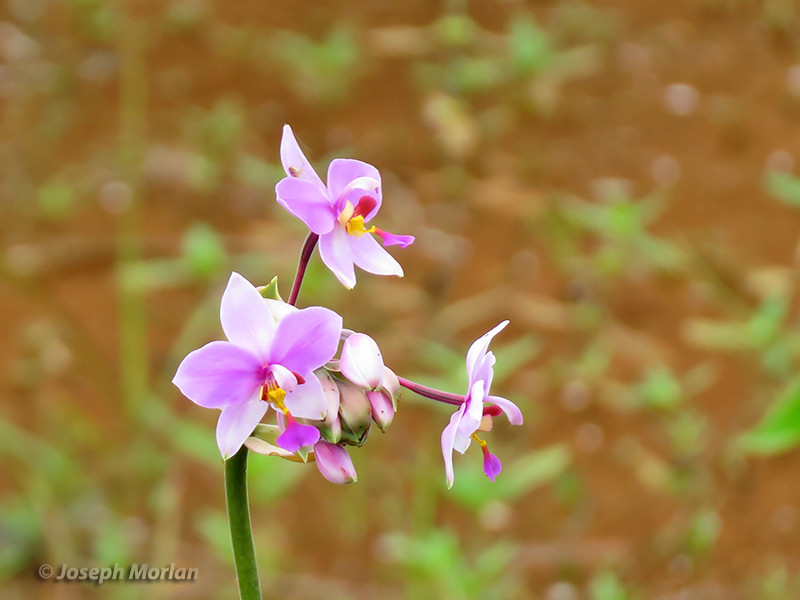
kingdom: Plantae
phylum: Tracheophyta
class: Liliopsida
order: Asparagales
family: Orchidaceae
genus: Spathoglottis
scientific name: Spathoglottis plicata
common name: Philippine ground orchid
